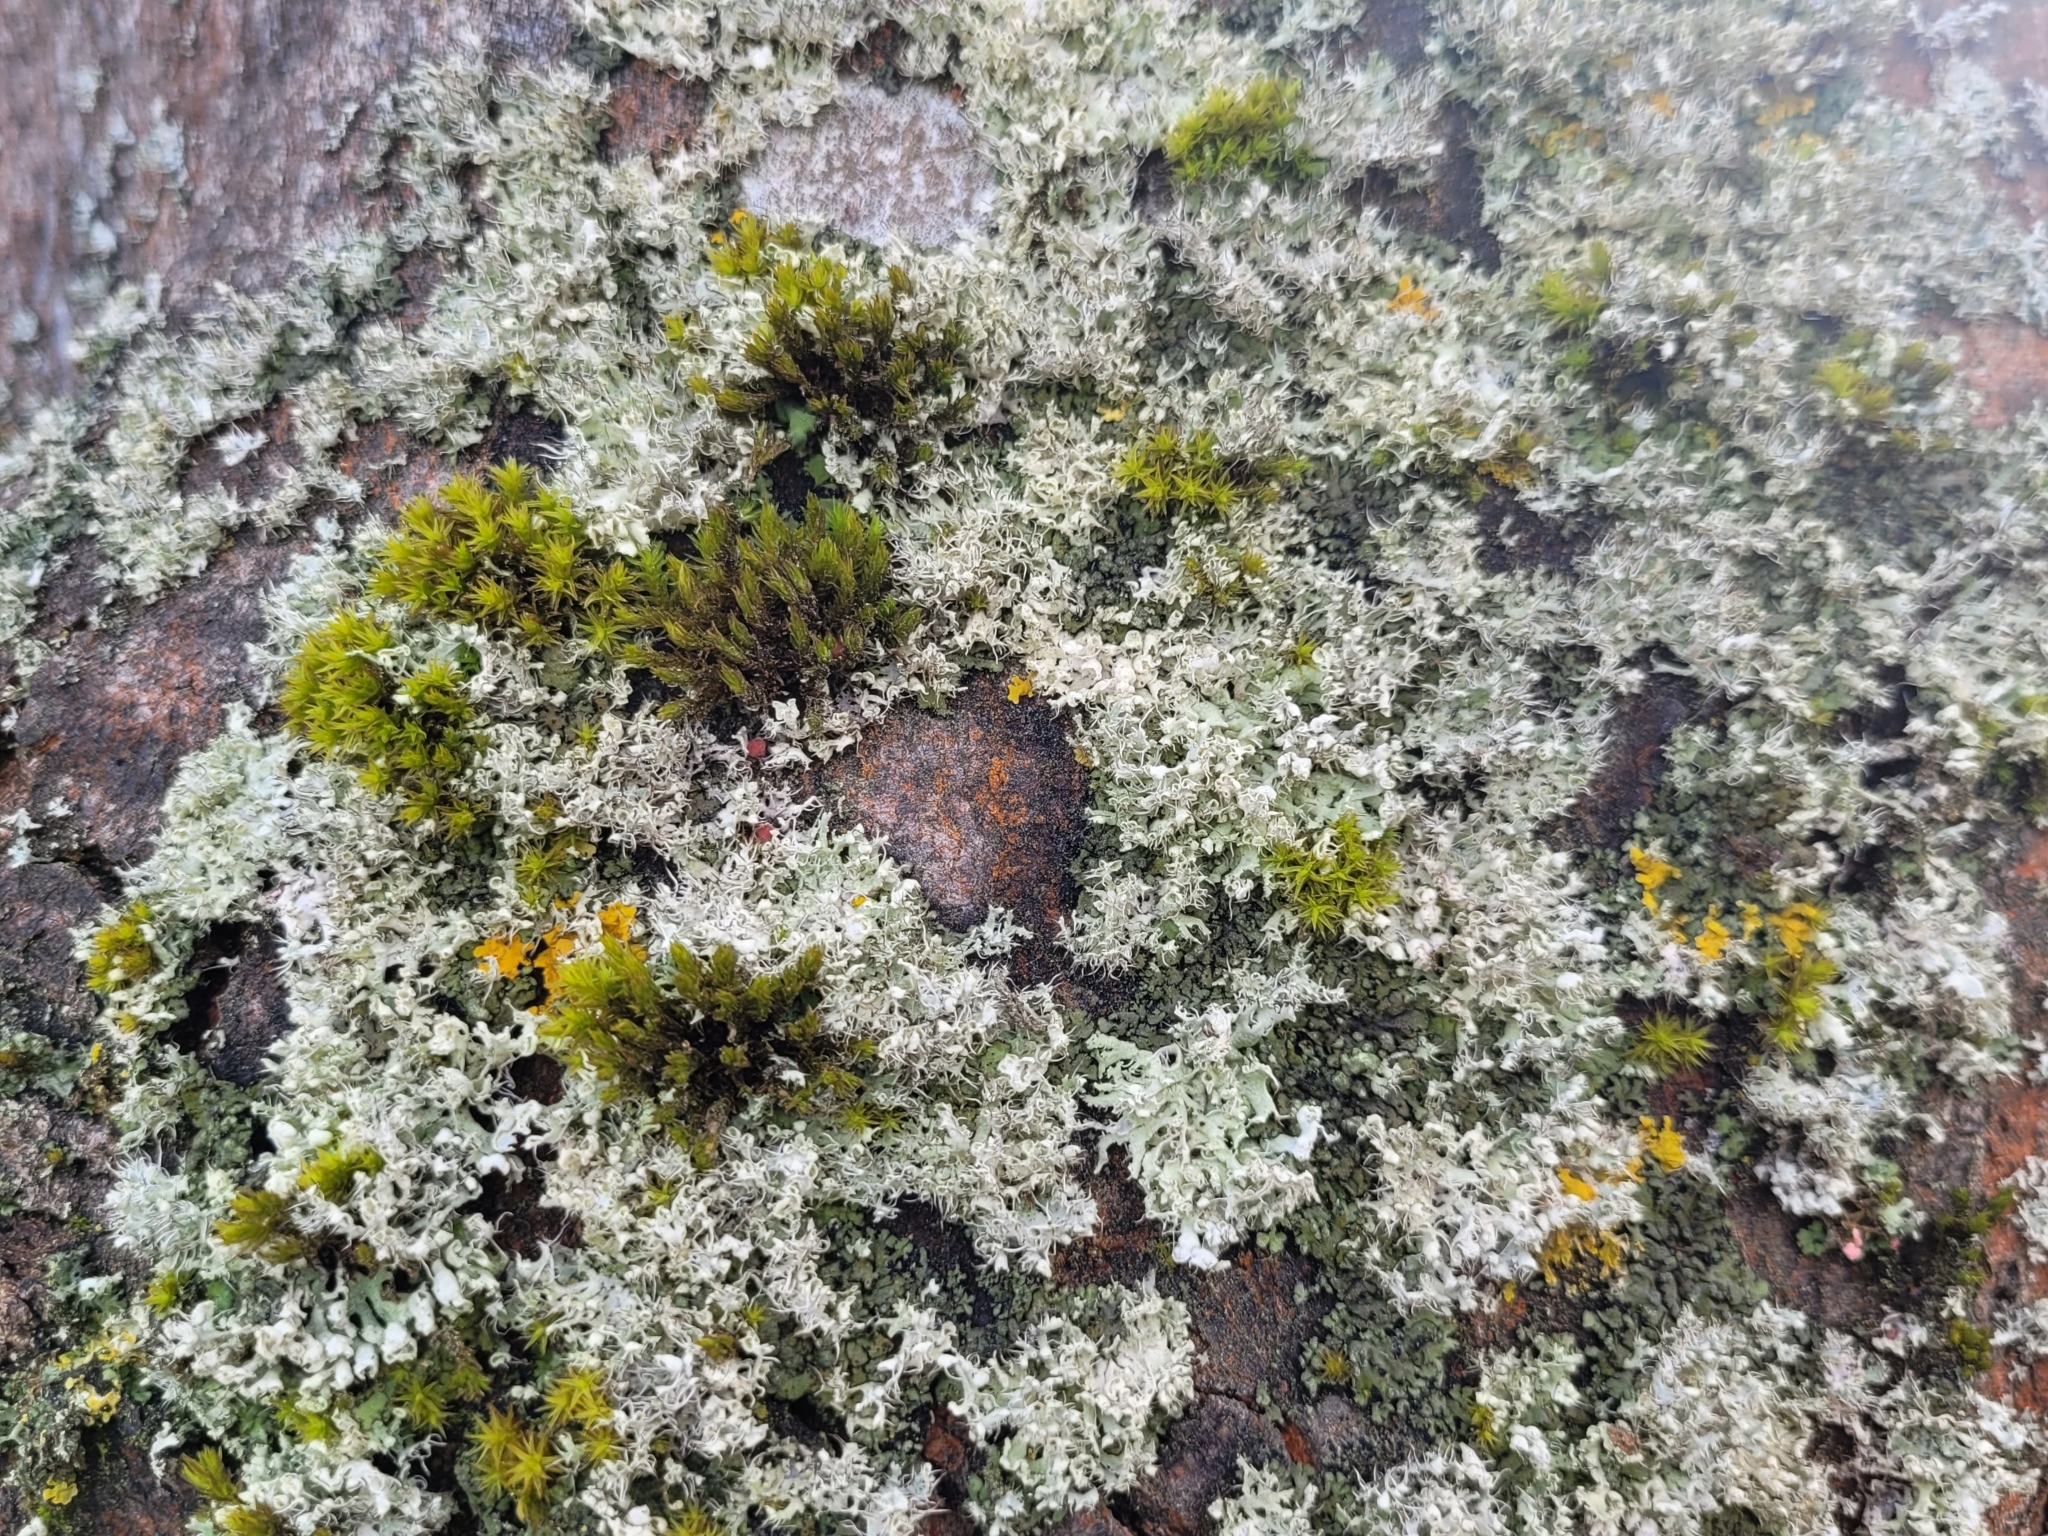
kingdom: Fungi
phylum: Ascomycota
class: Lecanoromycetes
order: Caliciales
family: Physciaceae
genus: Physcia
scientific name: Physcia adscendens
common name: Hooded rosette lichen
